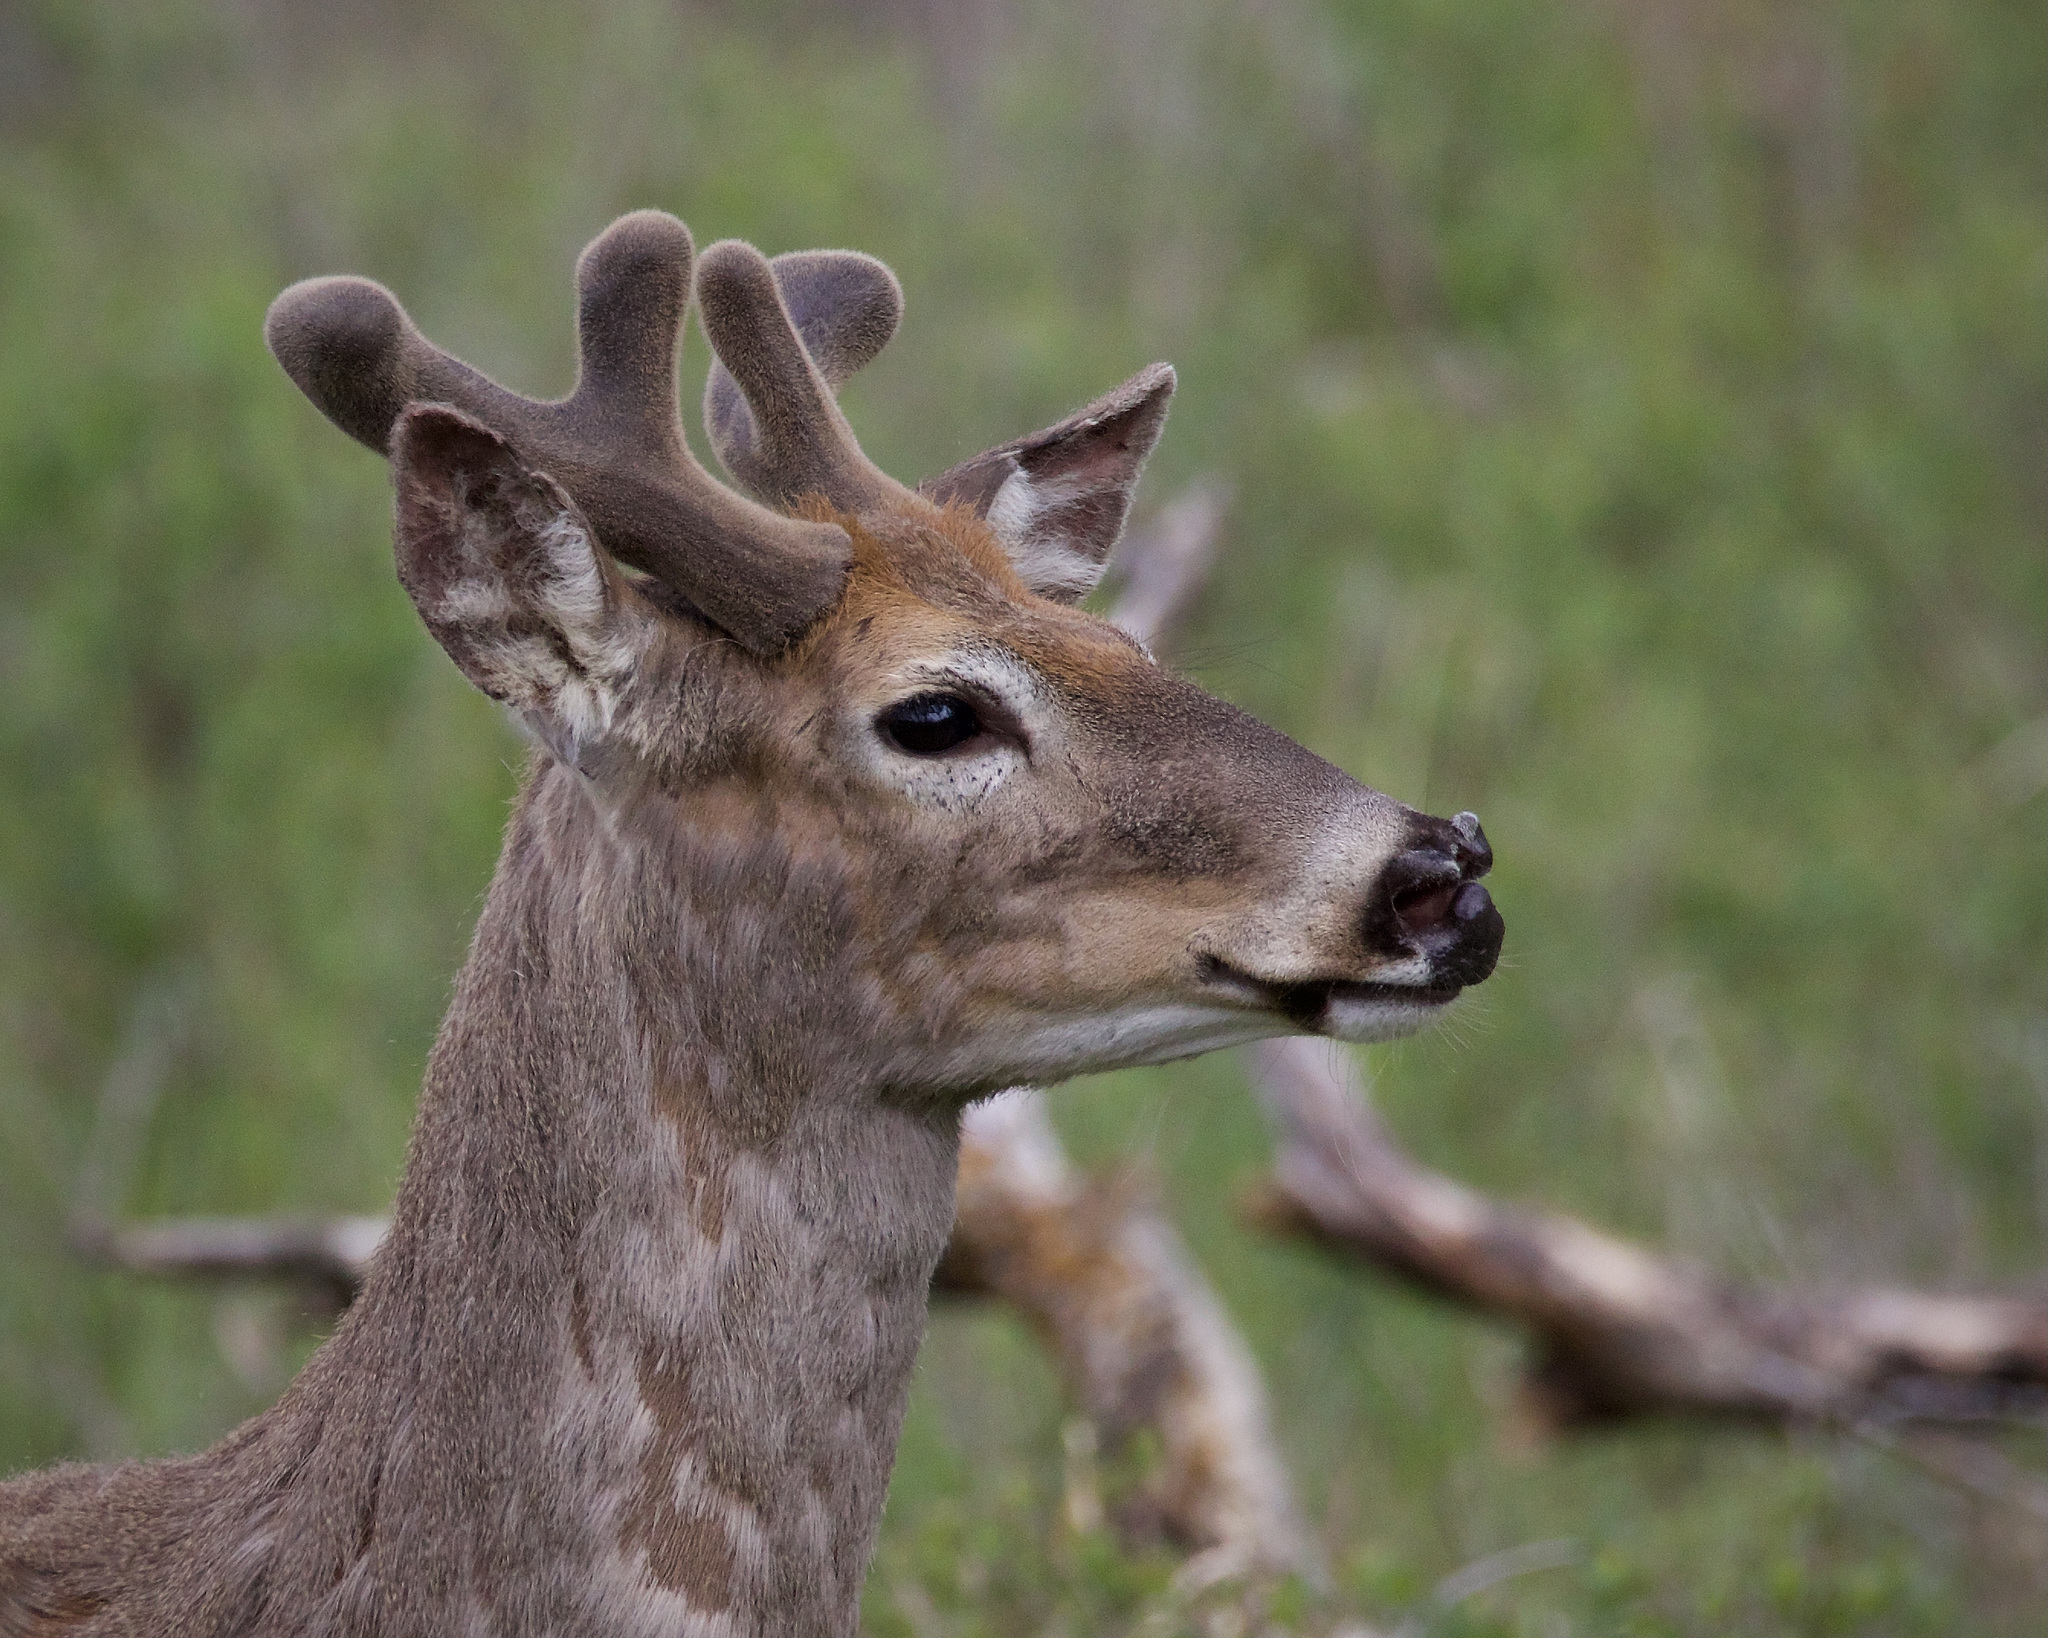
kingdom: Animalia
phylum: Chordata
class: Mammalia
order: Artiodactyla
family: Cervidae
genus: Odocoileus
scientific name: Odocoileus virginianus
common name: White-tailed deer
